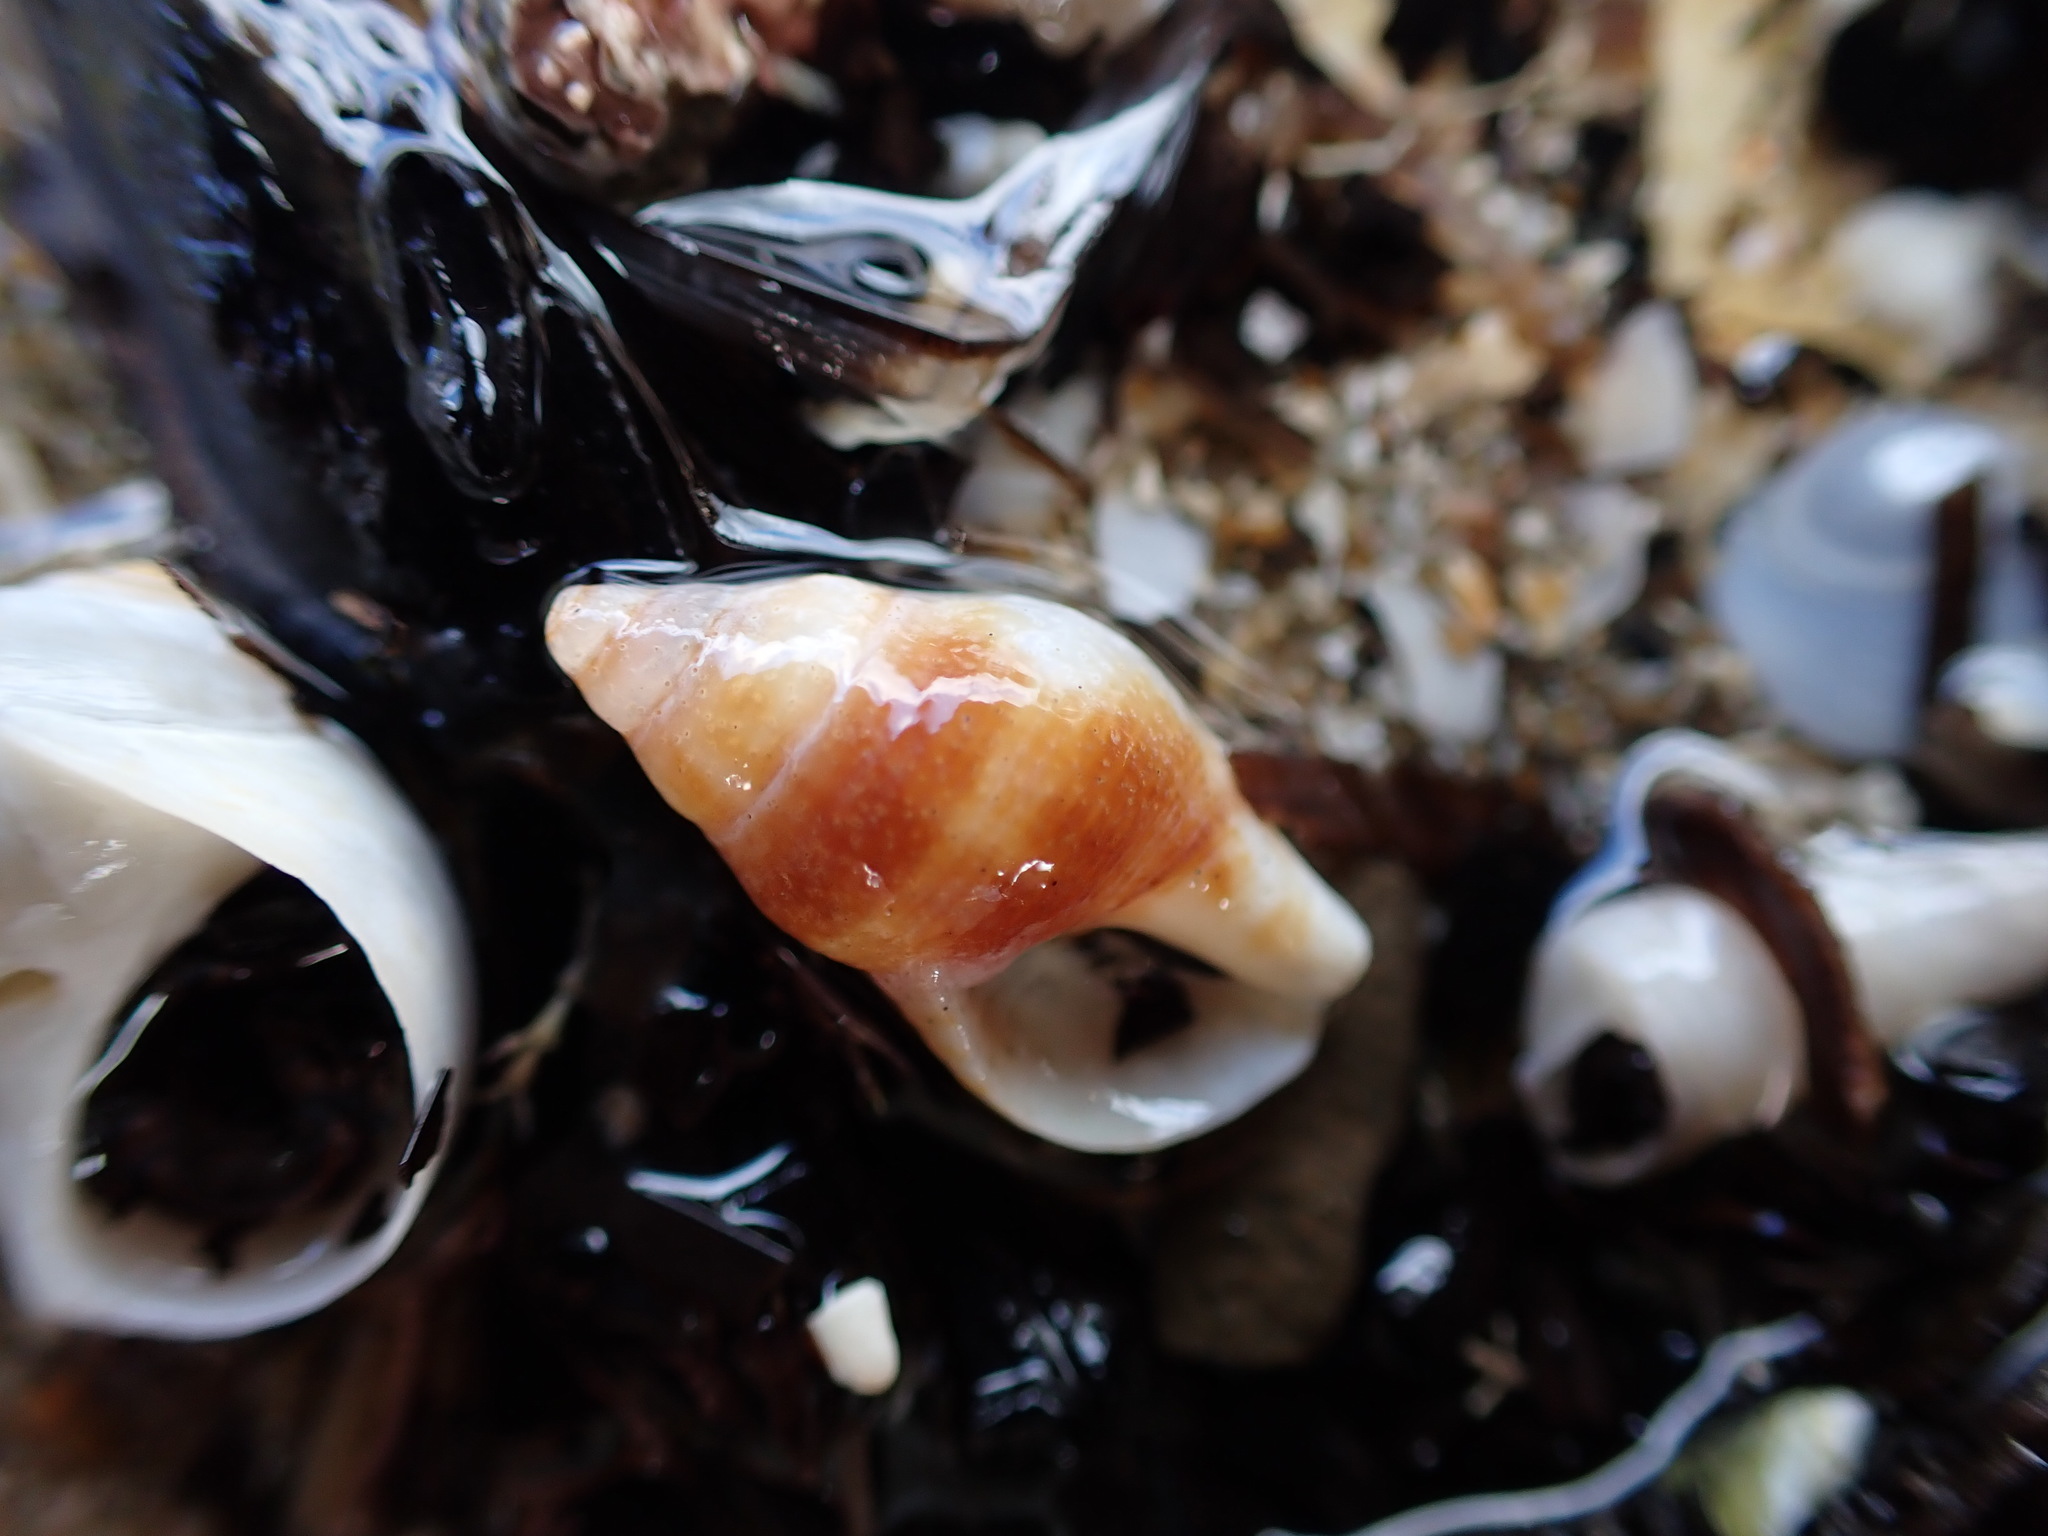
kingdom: Animalia
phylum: Mollusca
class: Gastropoda
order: Neogastropoda
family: Tudiclidae
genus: Buccinulum
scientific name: Buccinulum vittatum
